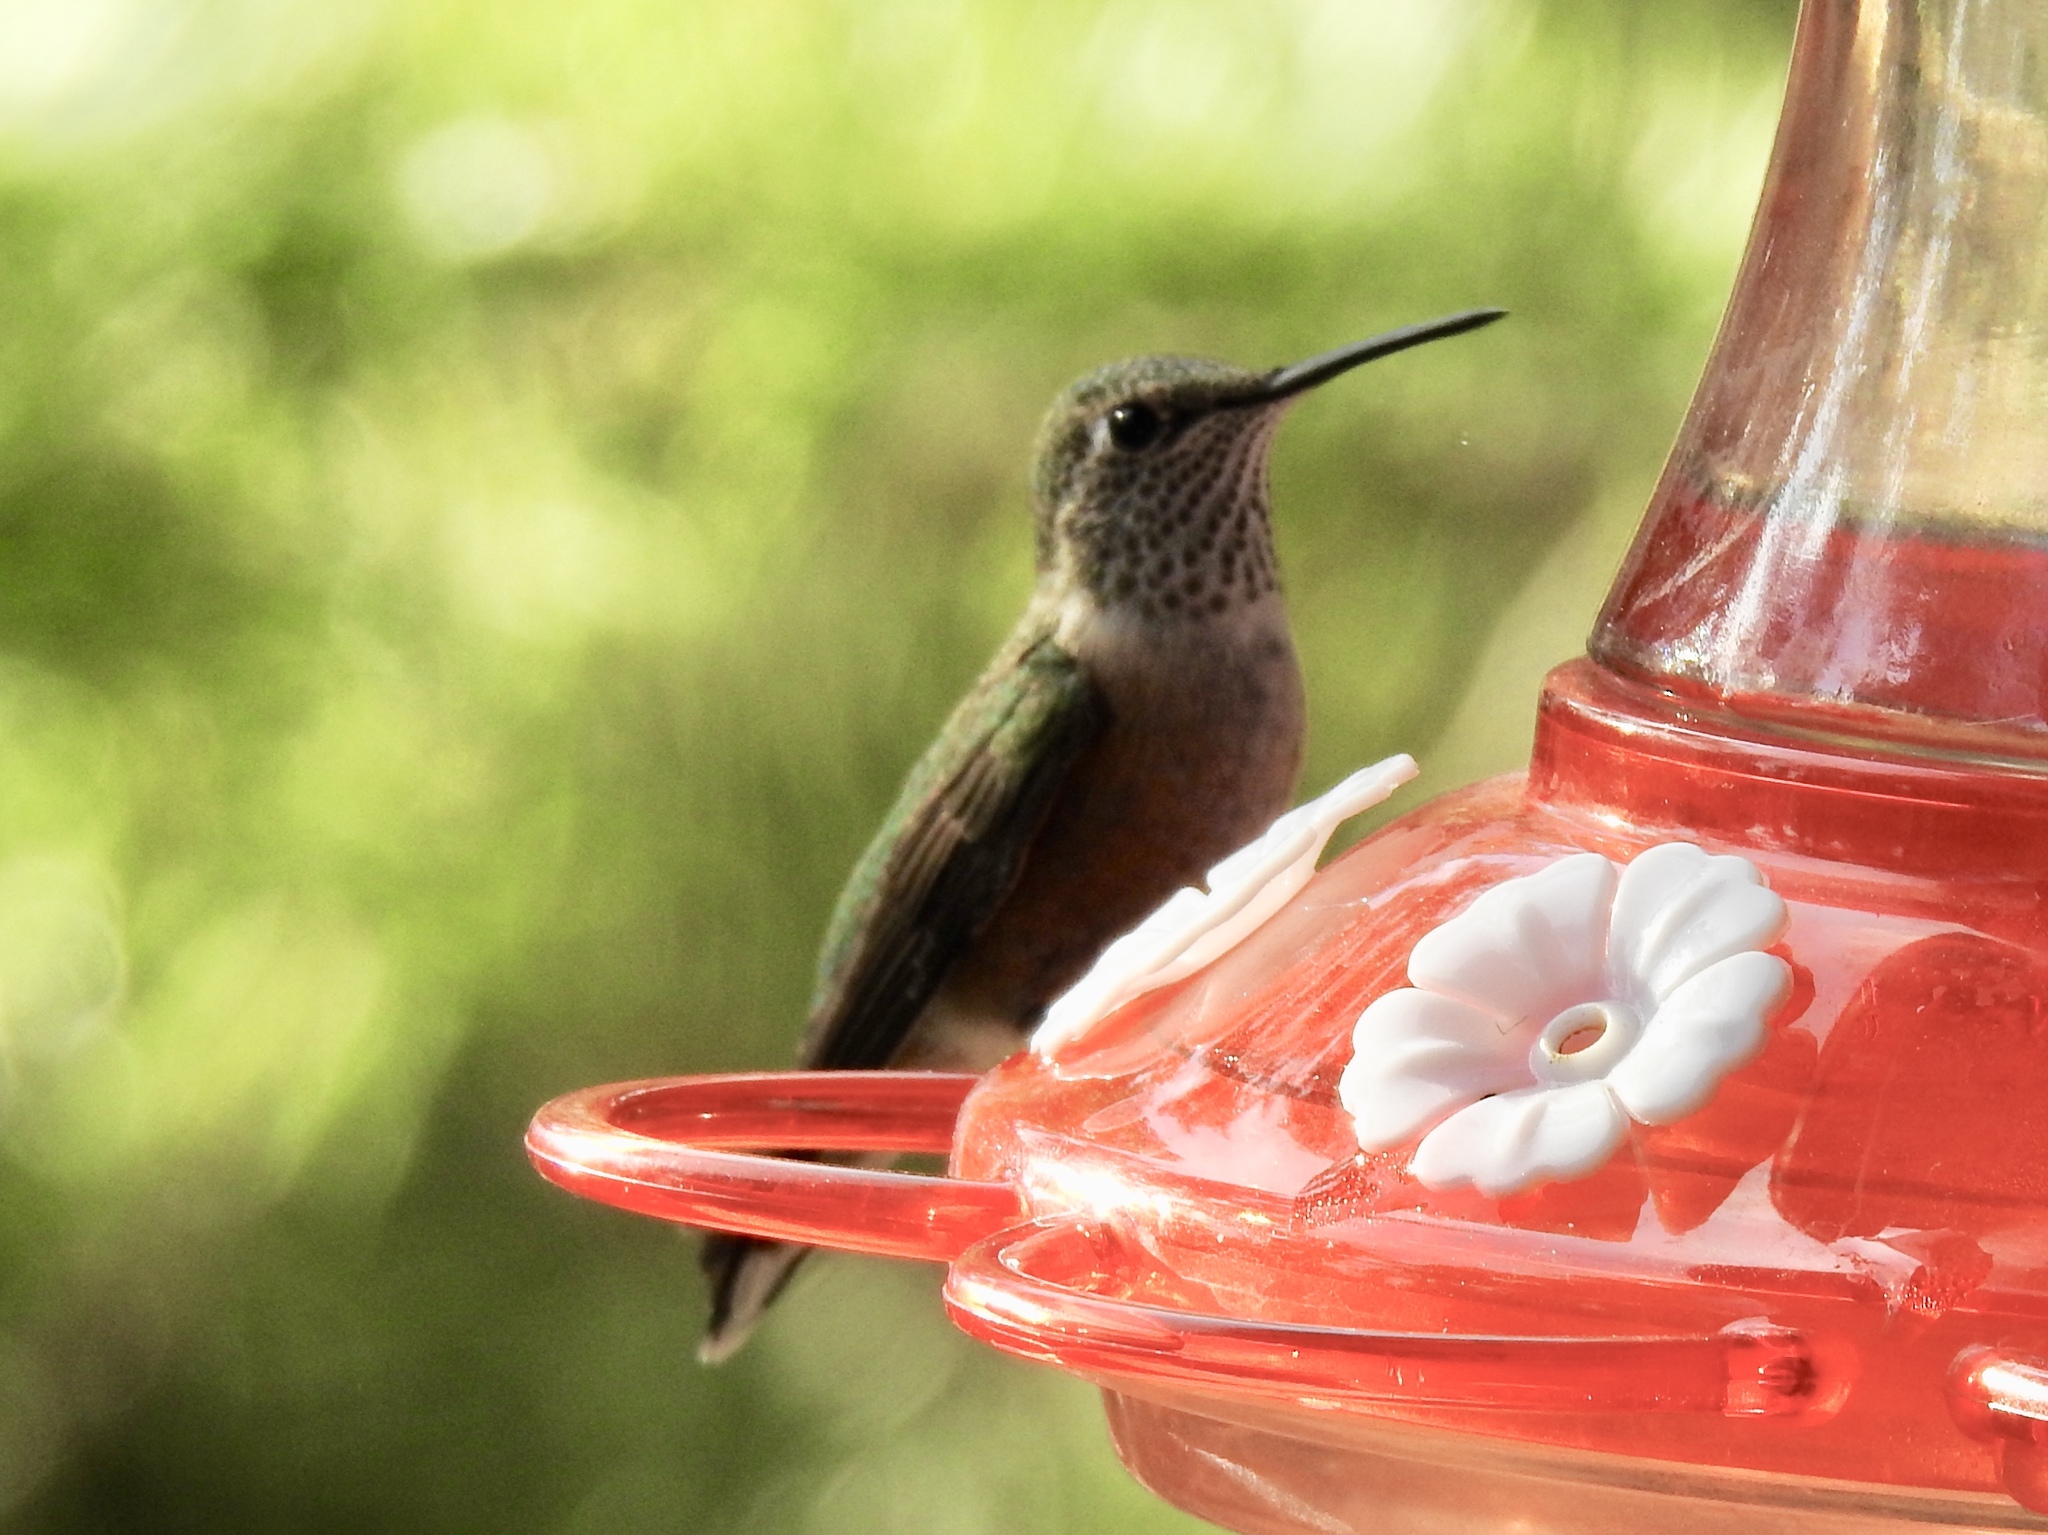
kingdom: Animalia
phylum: Chordata
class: Aves
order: Apodiformes
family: Trochilidae
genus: Selasphorus
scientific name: Selasphorus platycercus
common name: Broad-tailed hummingbird
